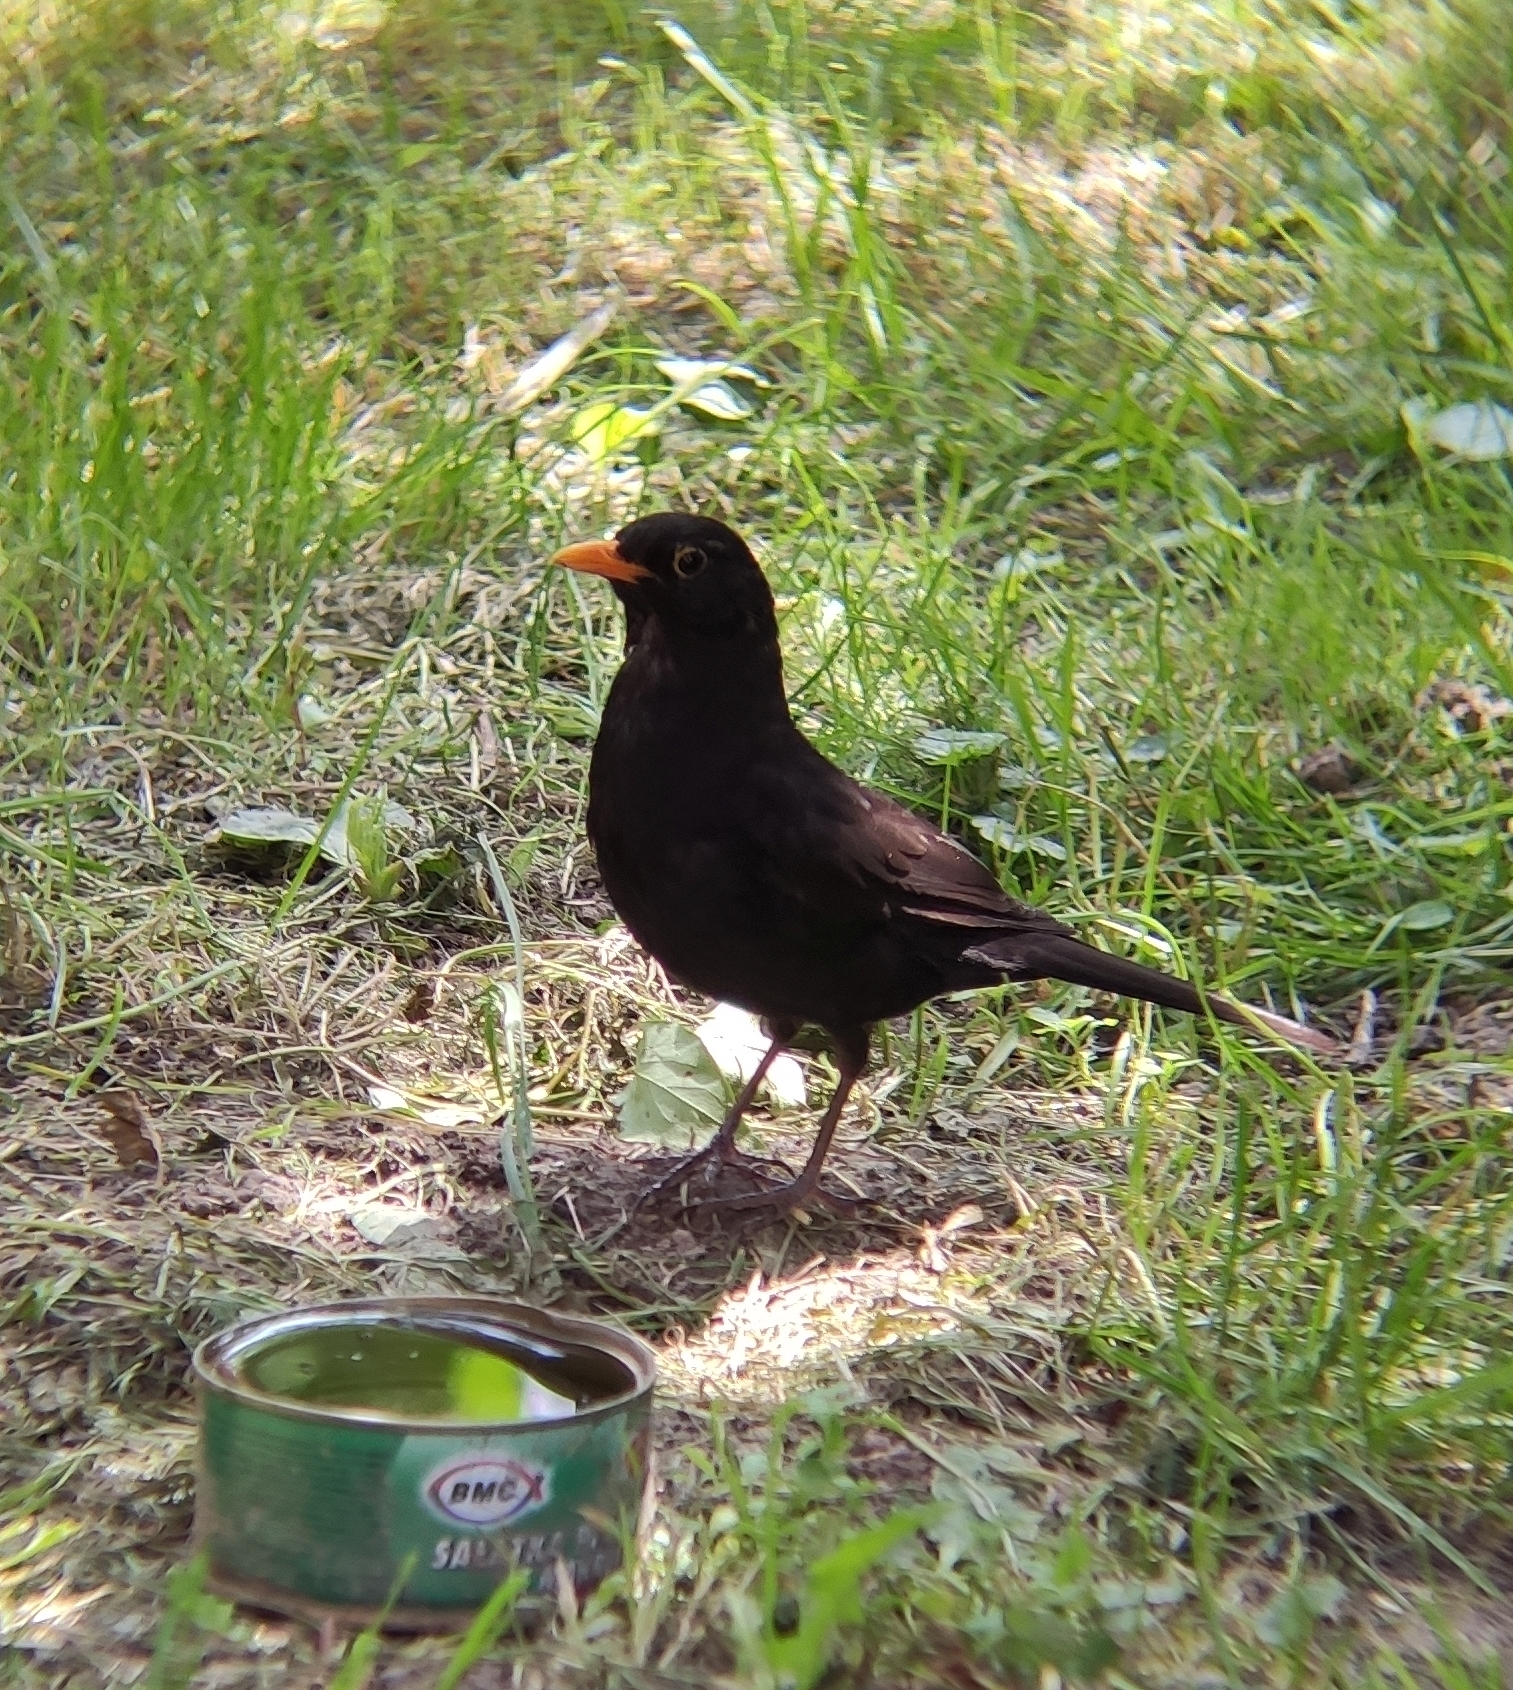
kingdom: Animalia
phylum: Chordata
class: Aves
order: Passeriformes
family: Turdidae
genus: Turdus
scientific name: Turdus merula
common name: Common blackbird
